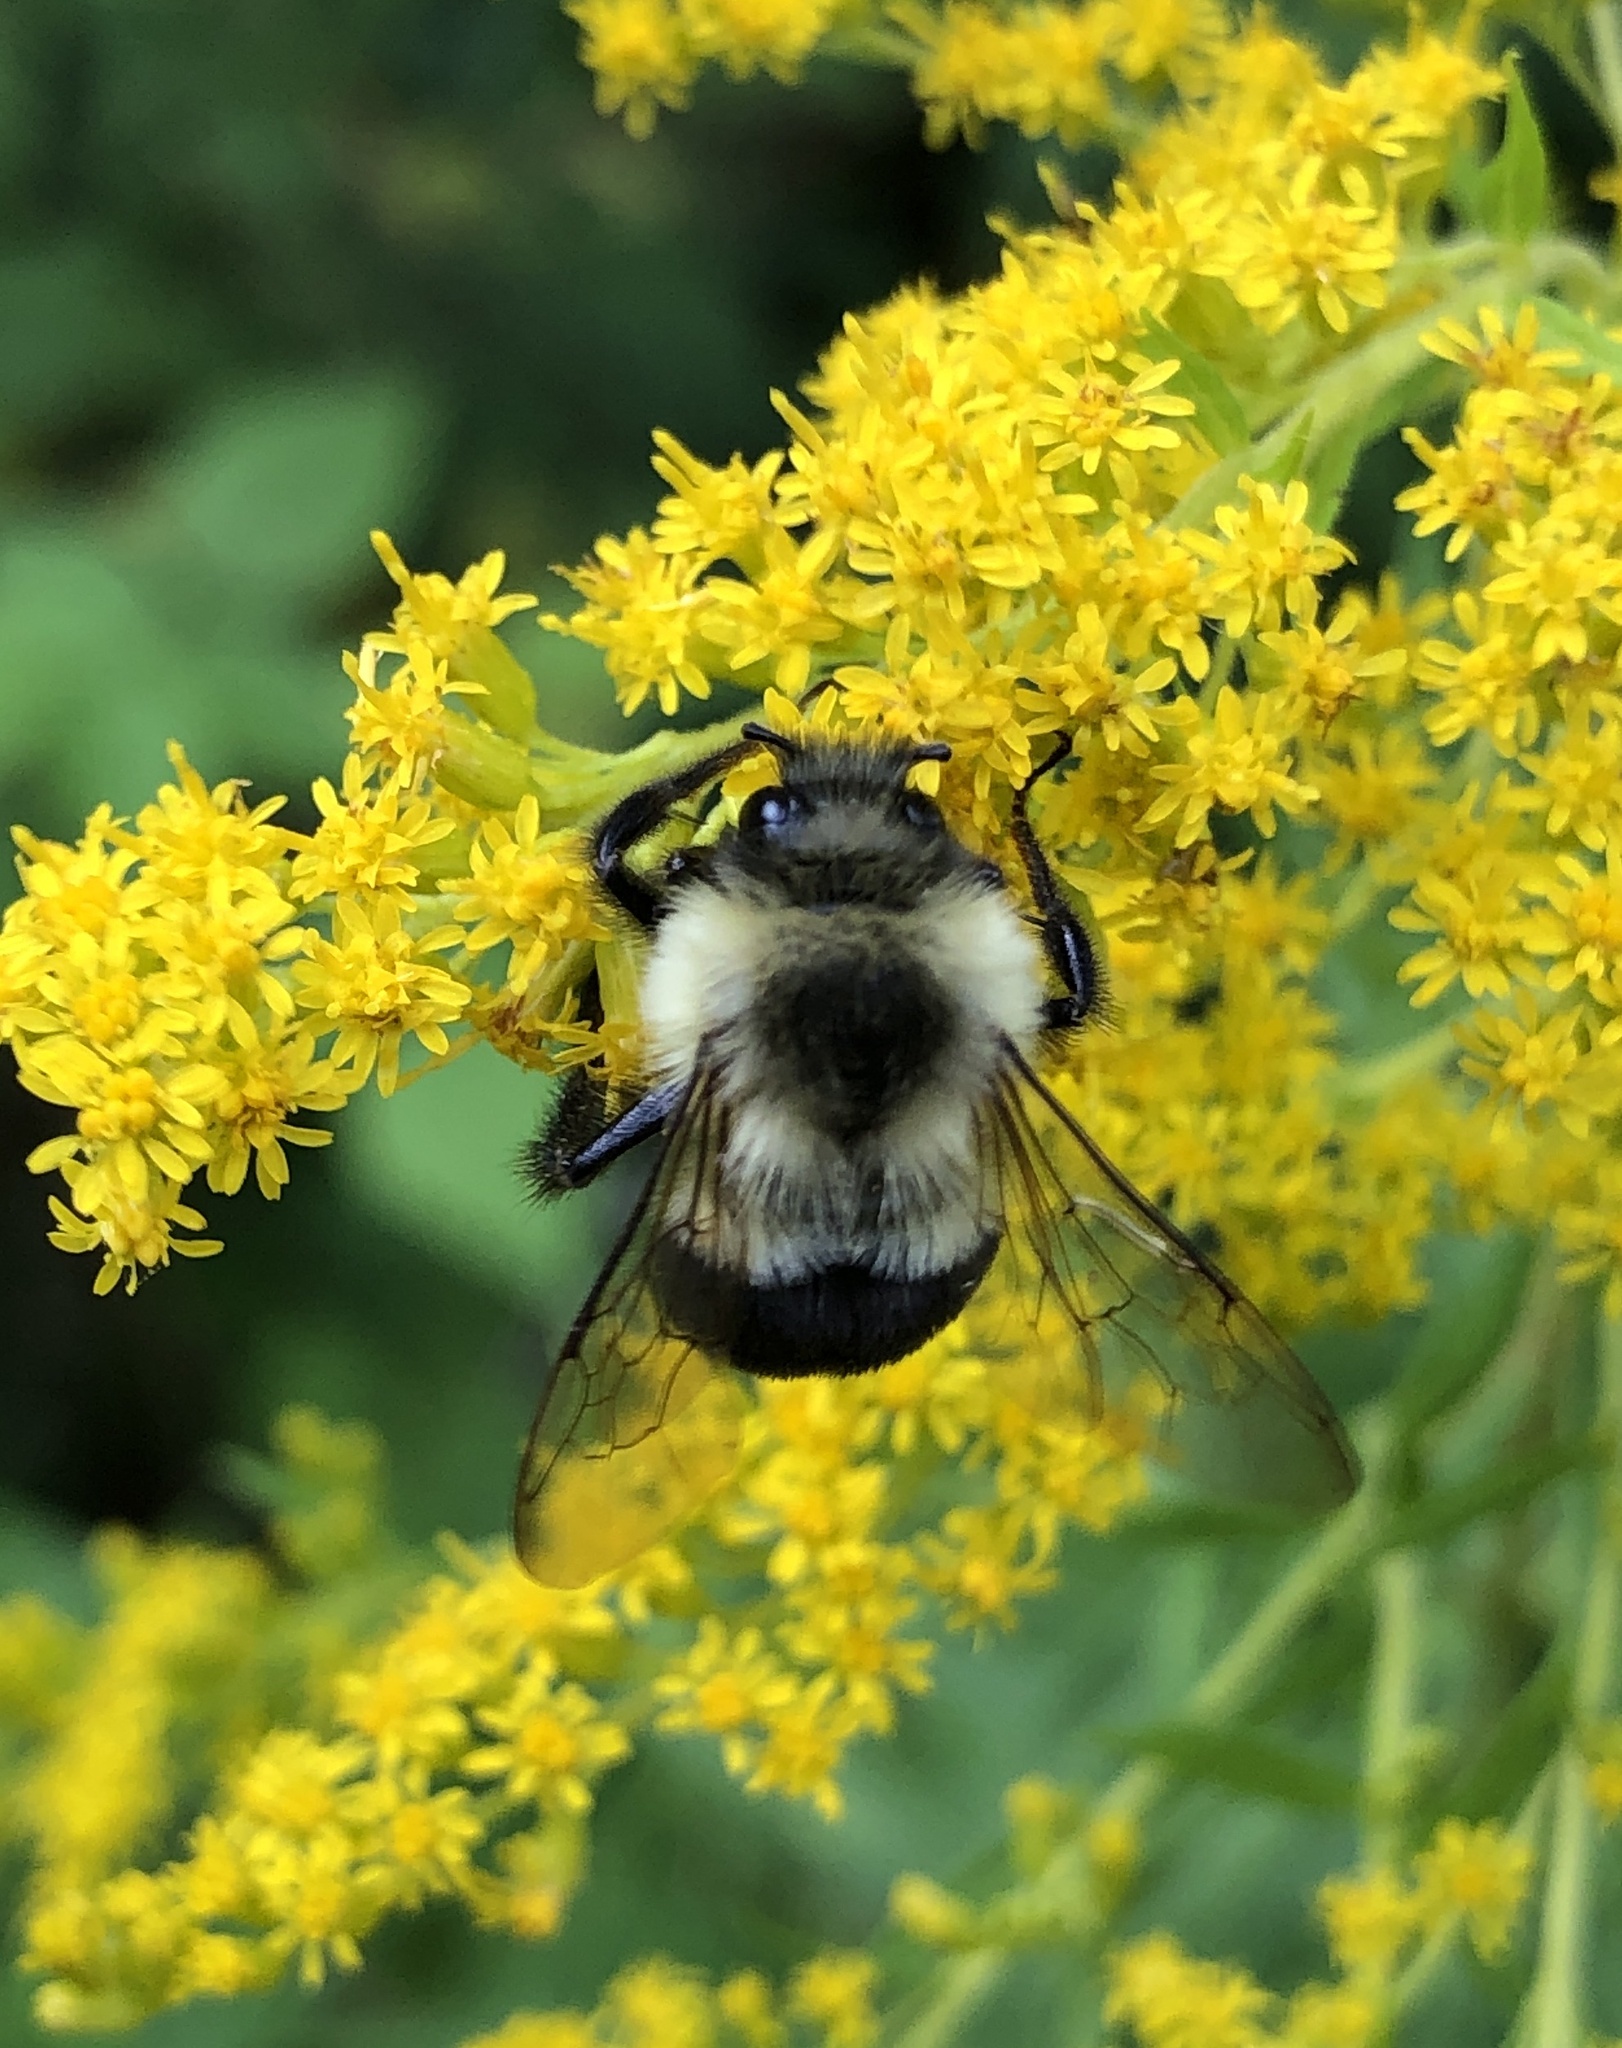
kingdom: Animalia
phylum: Arthropoda
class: Insecta
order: Hymenoptera
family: Apidae
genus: Bombus
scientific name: Bombus impatiens
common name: Common eastern bumble bee
